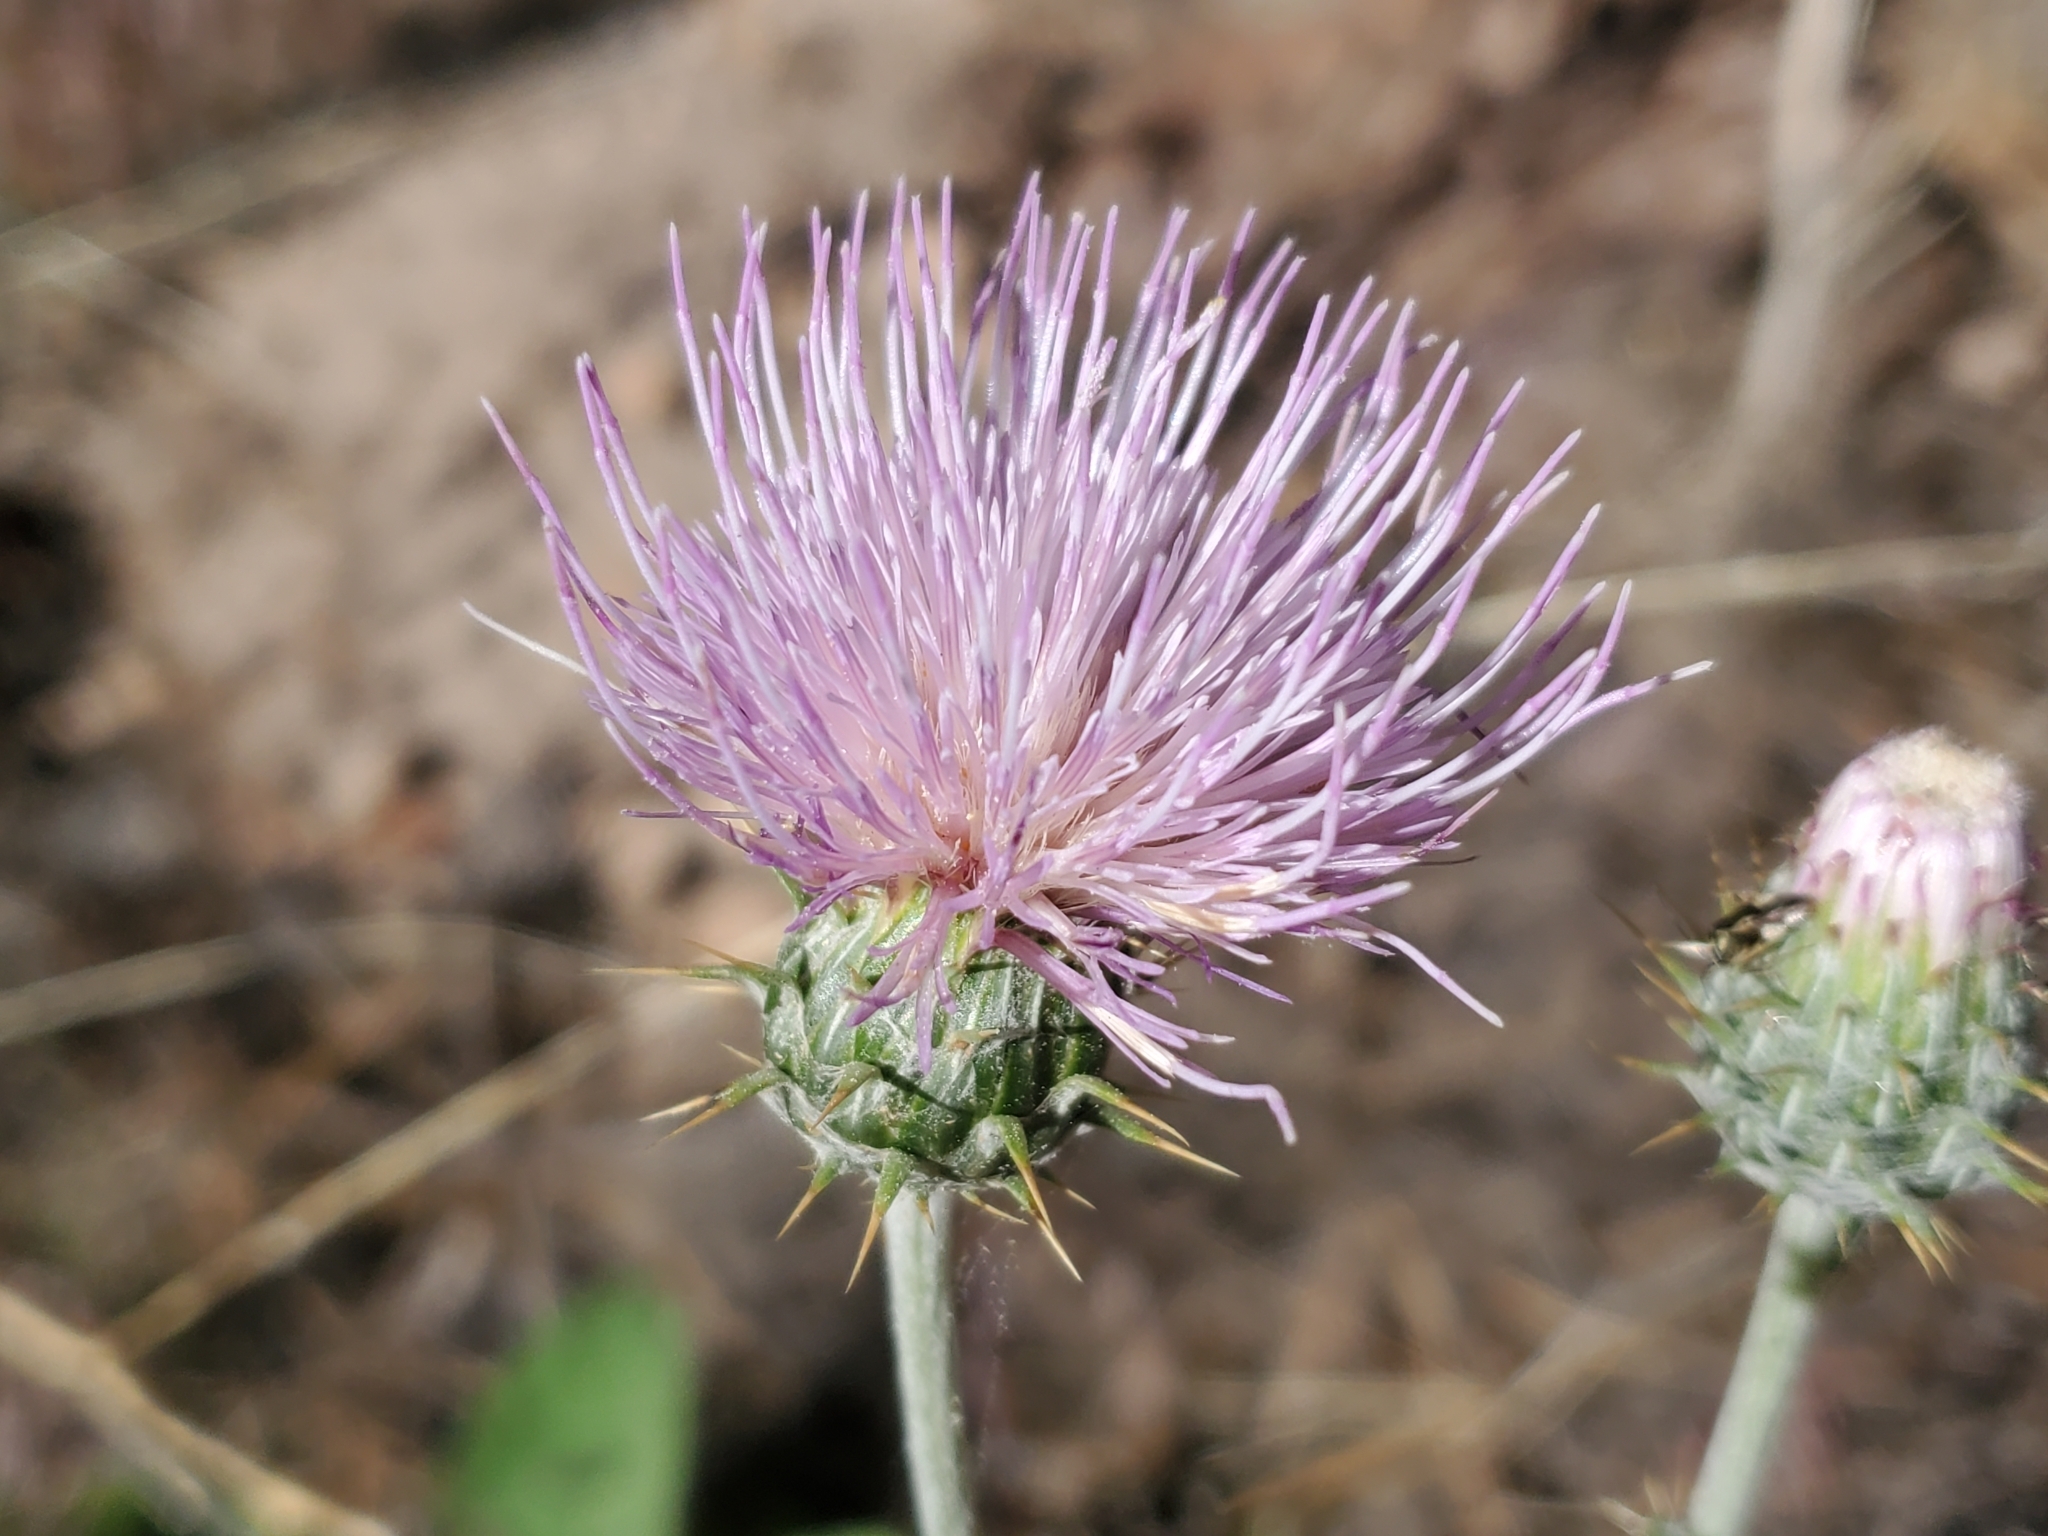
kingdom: Plantae
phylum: Tracheophyta
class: Magnoliopsida
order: Asterales
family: Asteraceae
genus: Cirsium
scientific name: Cirsium neomexicanum
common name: New mexico thistle
